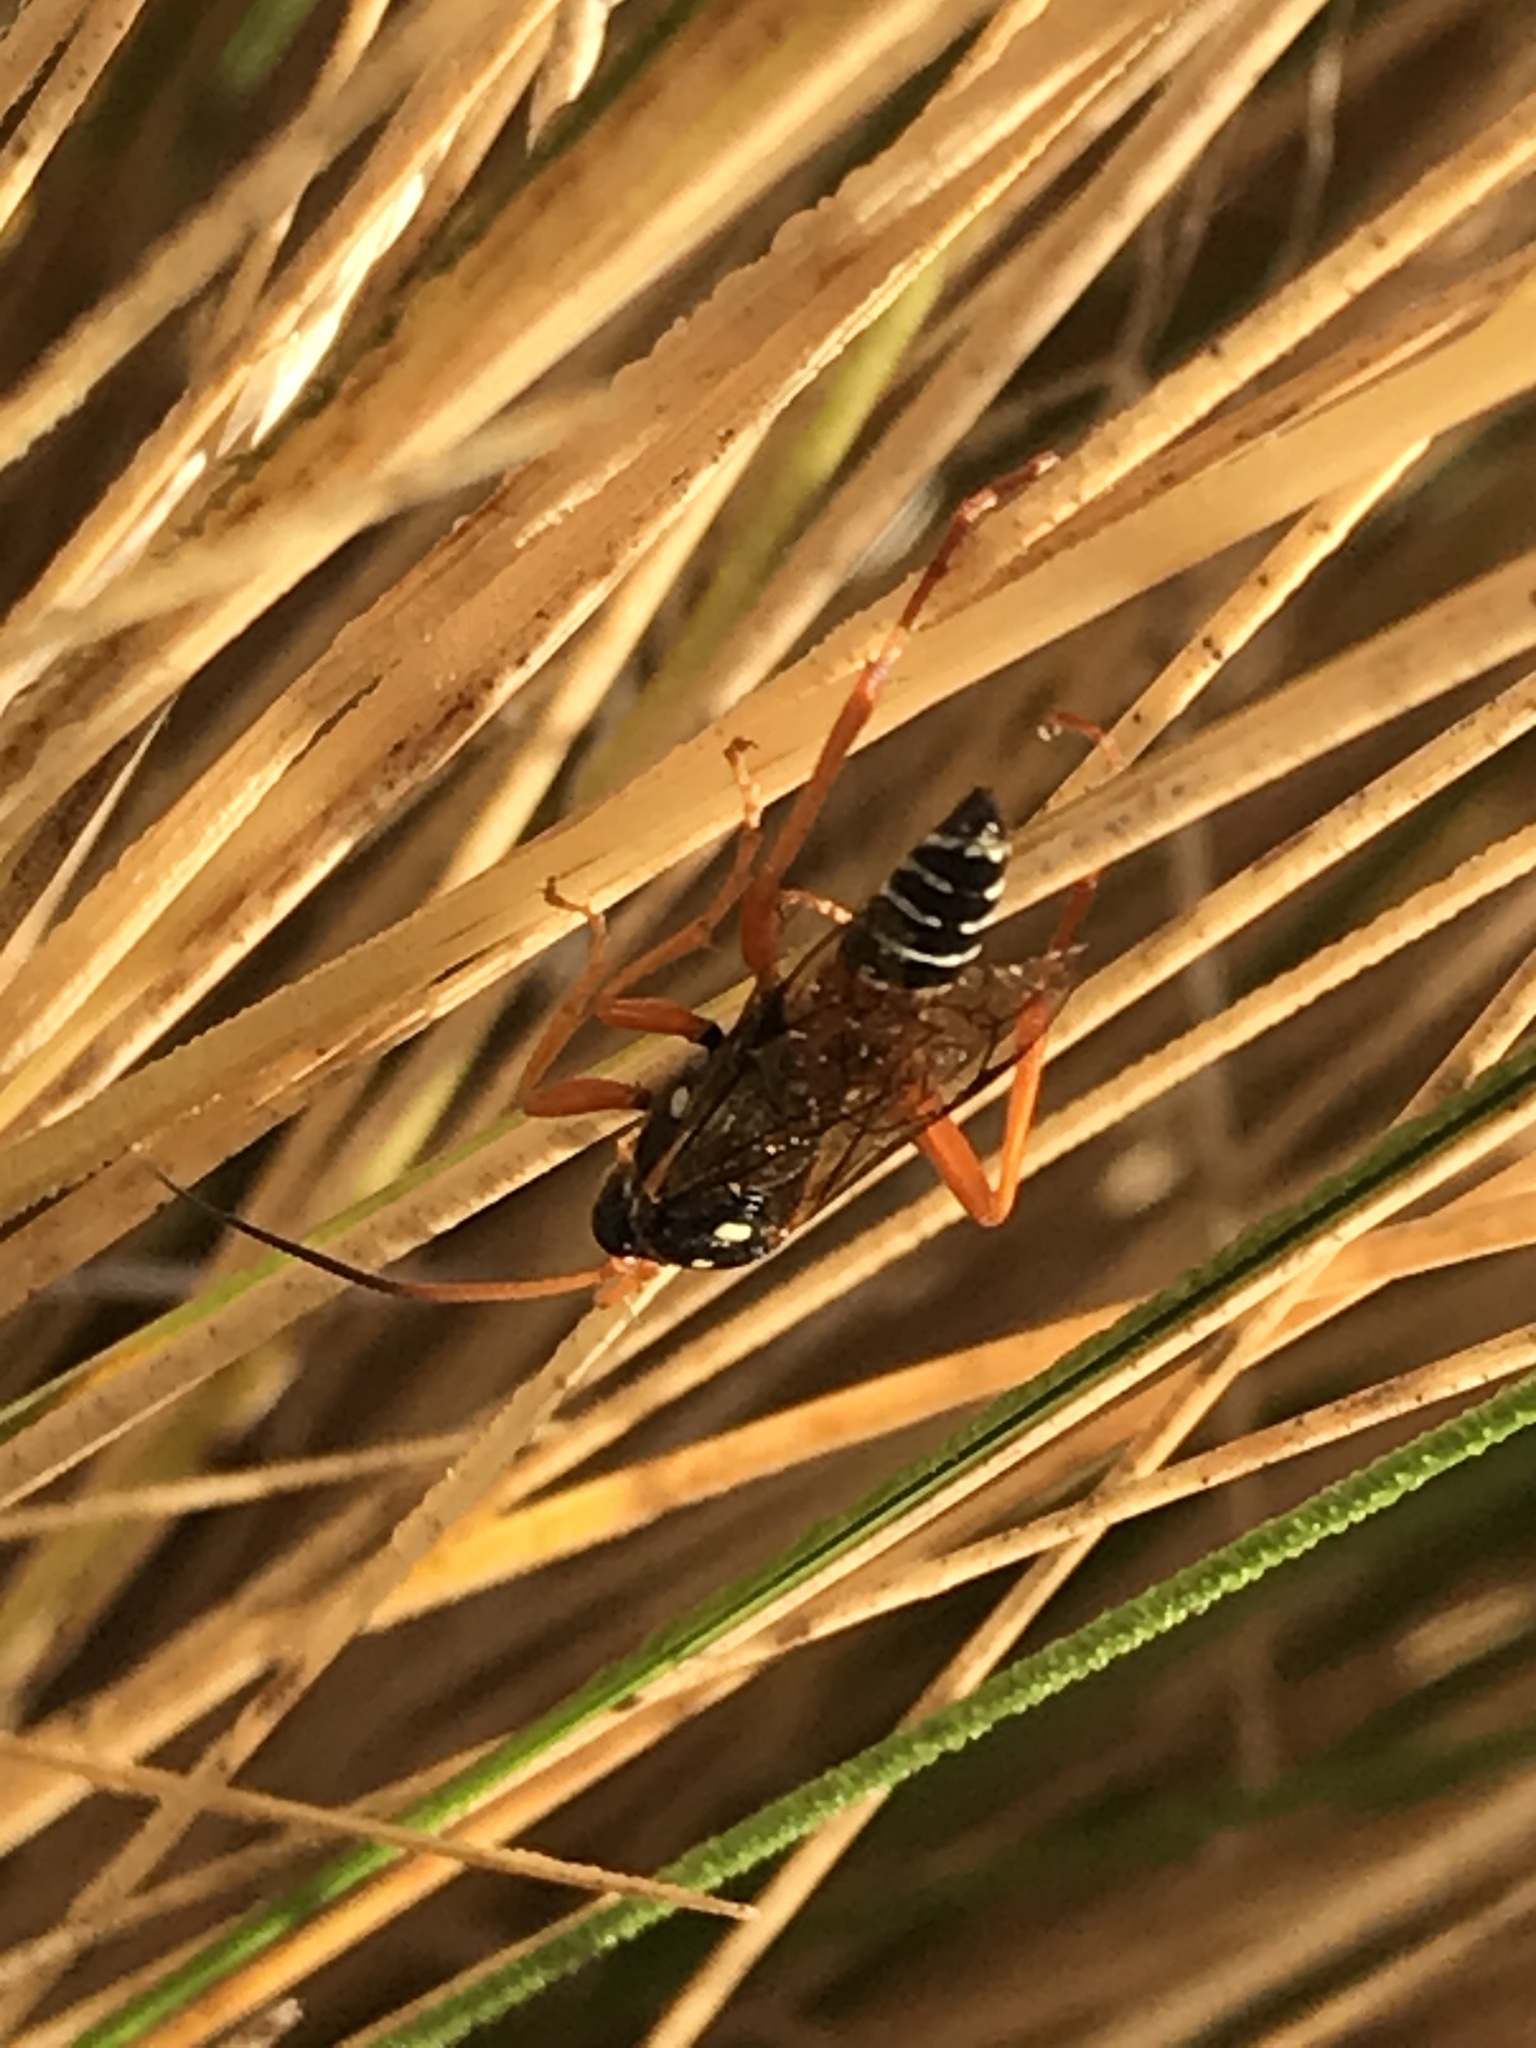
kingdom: Animalia
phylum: Arthropoda
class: Insecta
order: Hymenoptera
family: Ichneumonidae
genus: Eutanyacra
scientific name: Eutanyacra licitatoria
